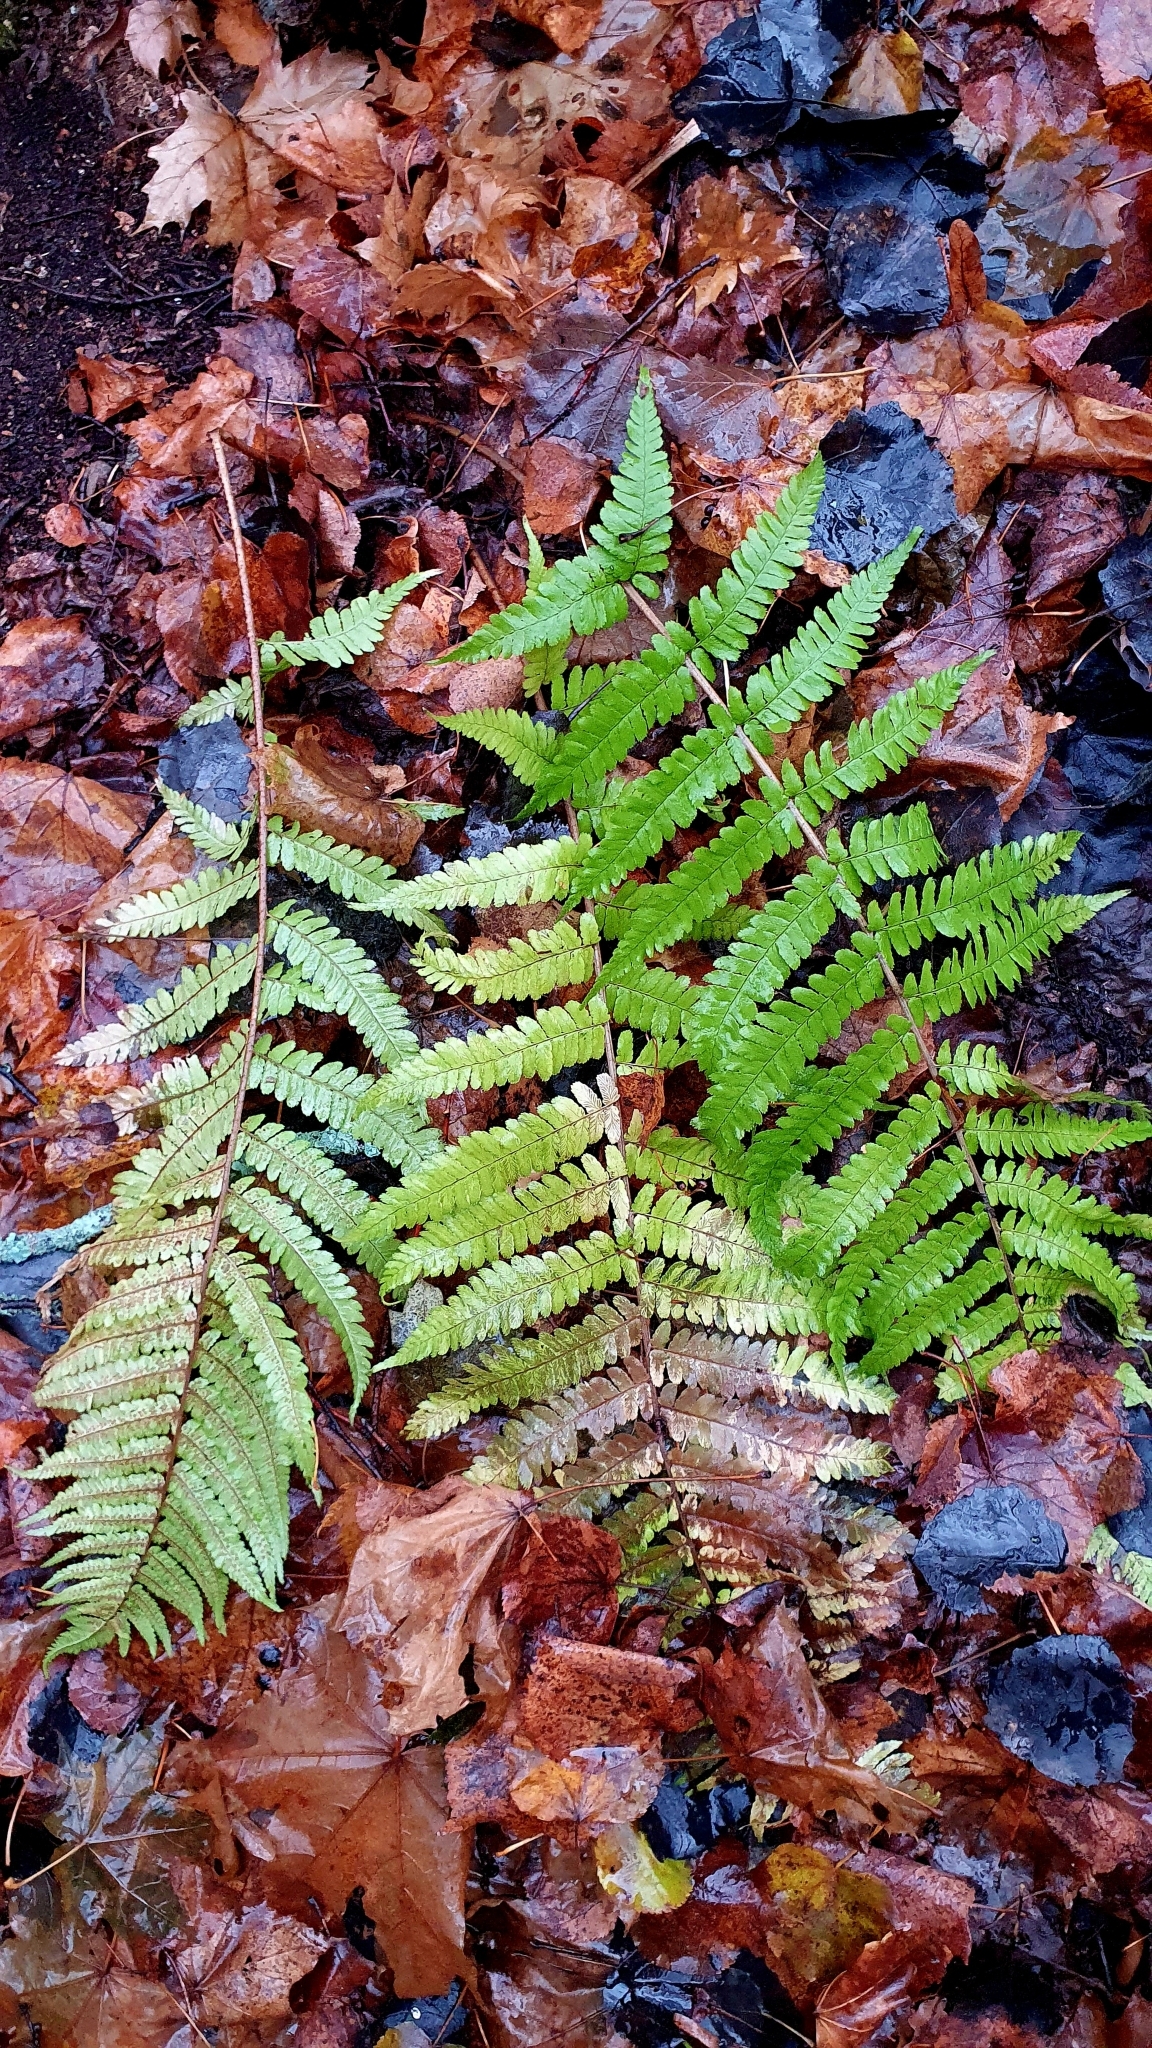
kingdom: Plantae
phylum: Tracheophyta
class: Polypodiopsida
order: Polypodiales
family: Dryopteridaceae
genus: Dryopteris
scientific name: Dryopteris filix-mas
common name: Male fern
